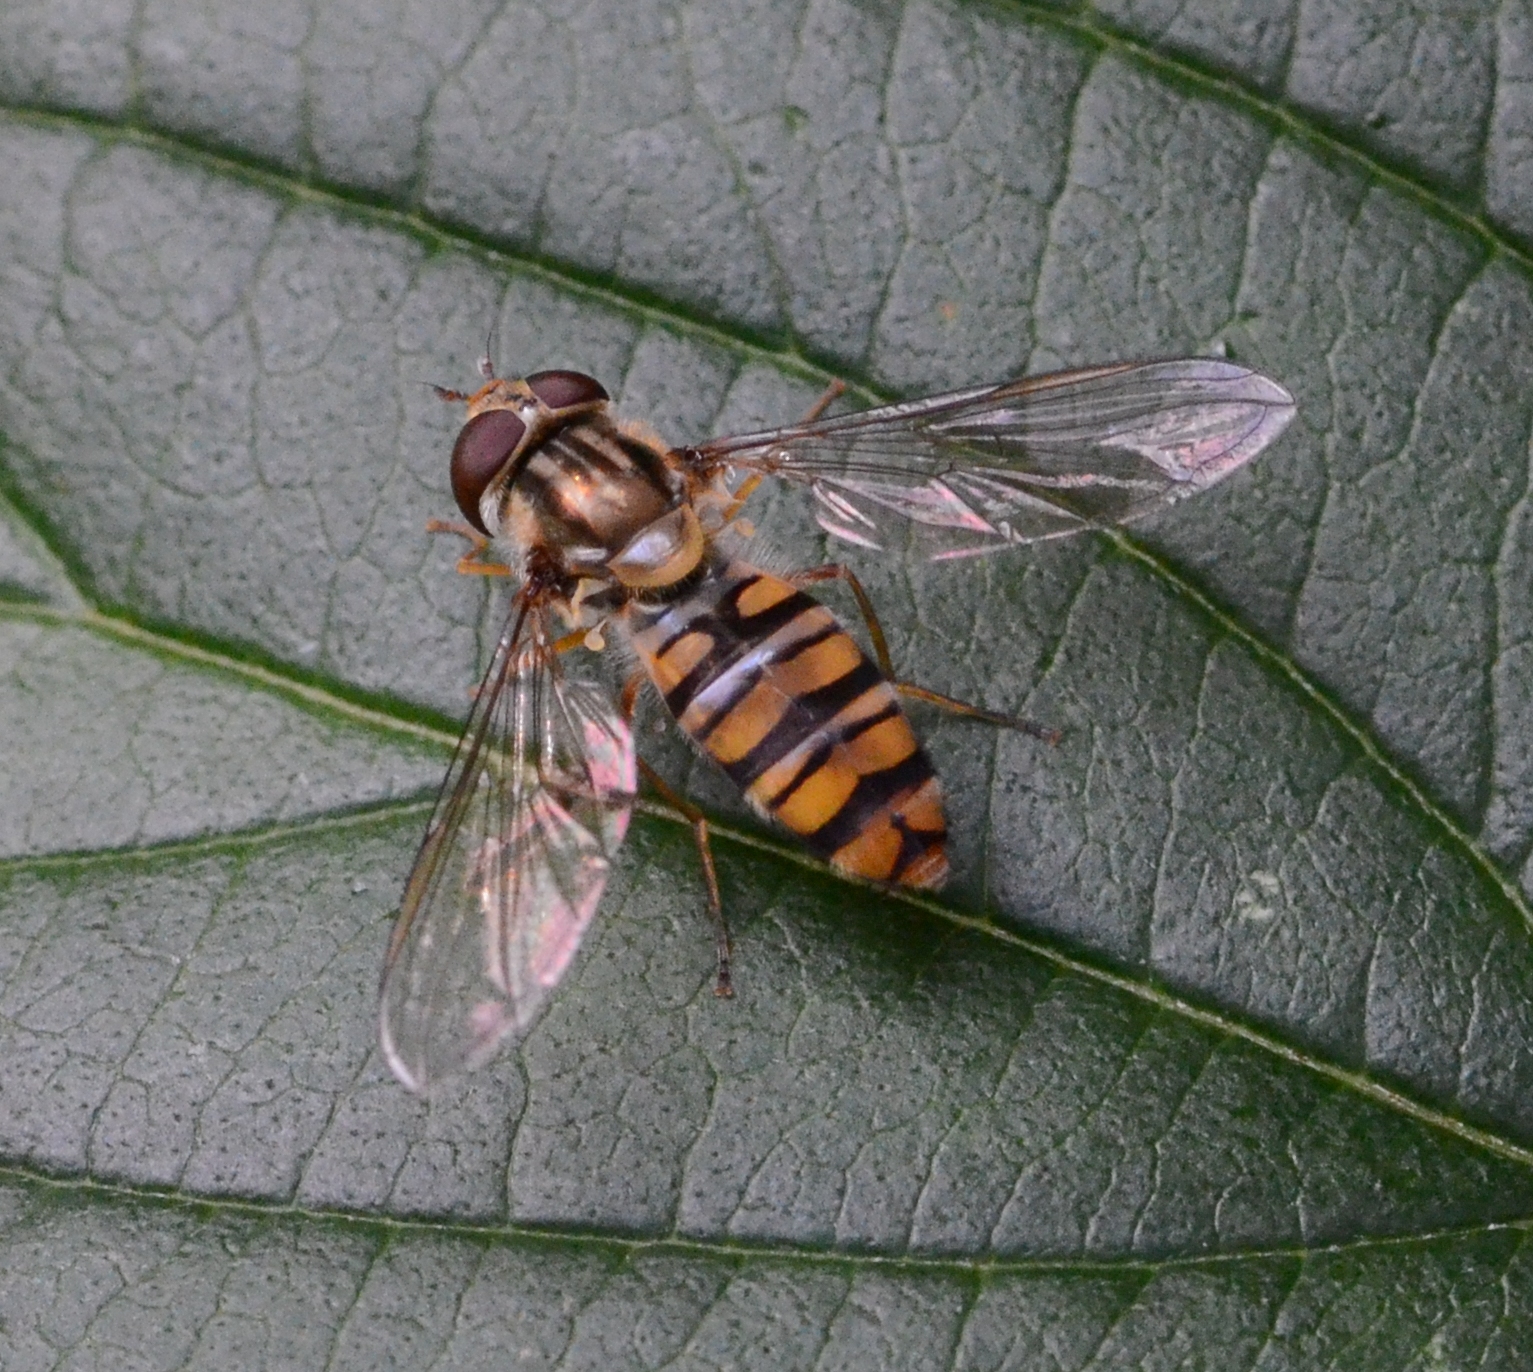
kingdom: Animalia
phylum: Arthropoda
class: Insecta
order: Diptera
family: Syrphidae
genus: Episyrphus
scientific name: Episyrphus balteatus
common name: Marmalade hoverfly
